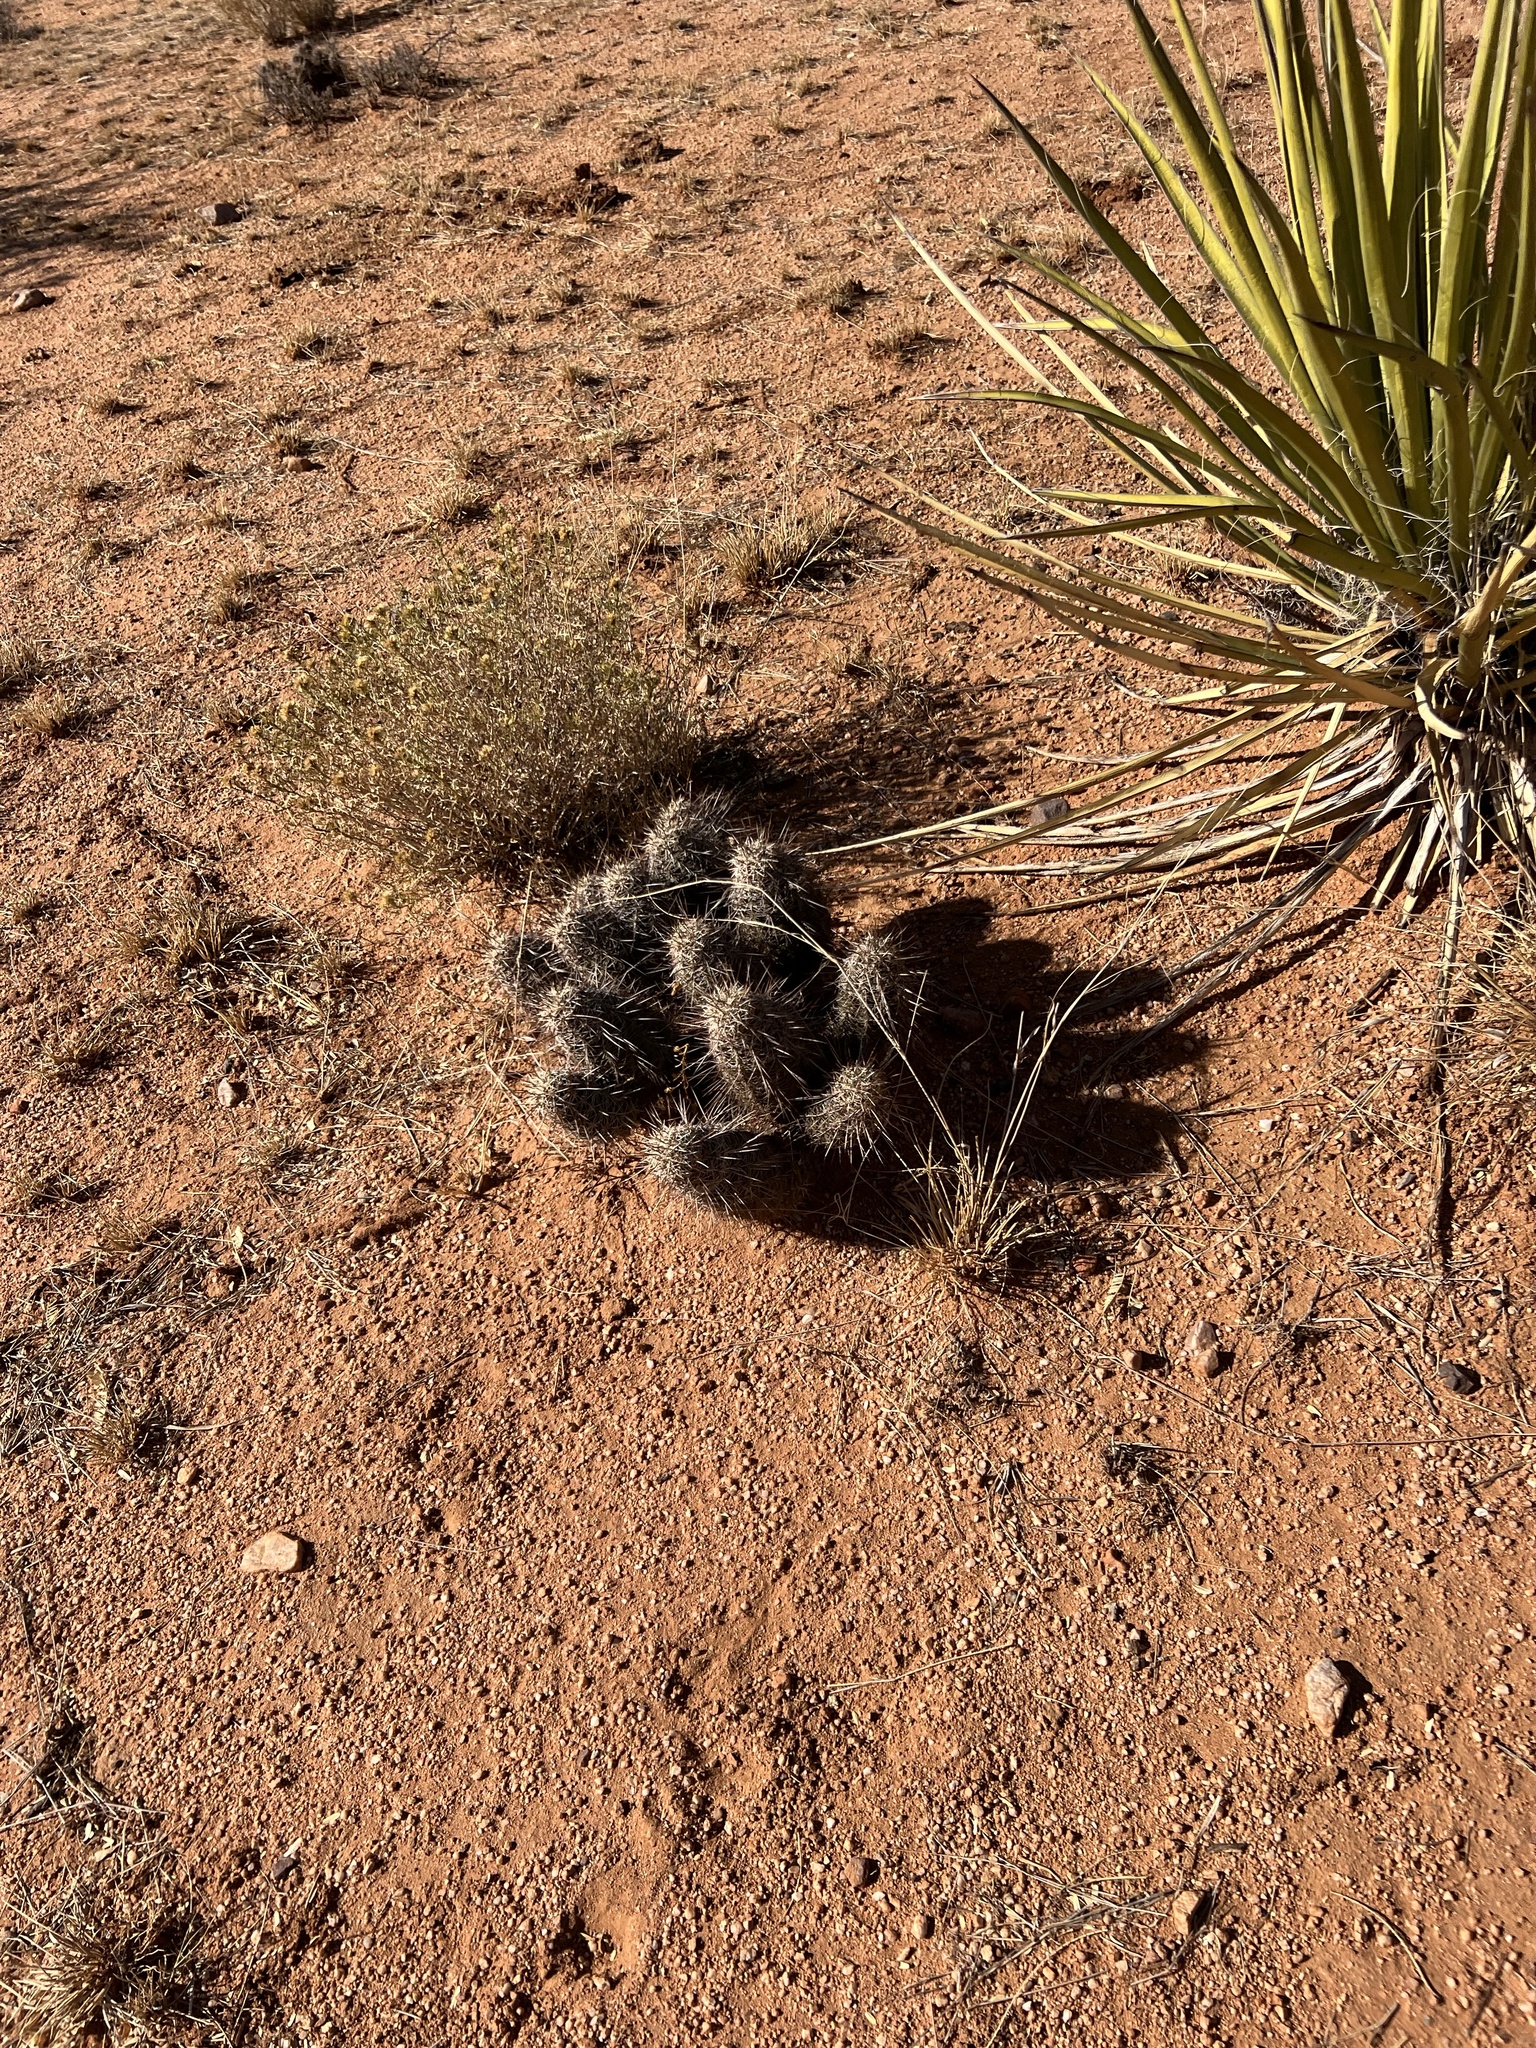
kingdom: Plantae
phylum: Tracheophyta
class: Magnoliopsida
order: Caryophyllales
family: Cactaceae
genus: Echinocereus
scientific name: Echinocereus fasciculatus
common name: Bundle hedgehog
